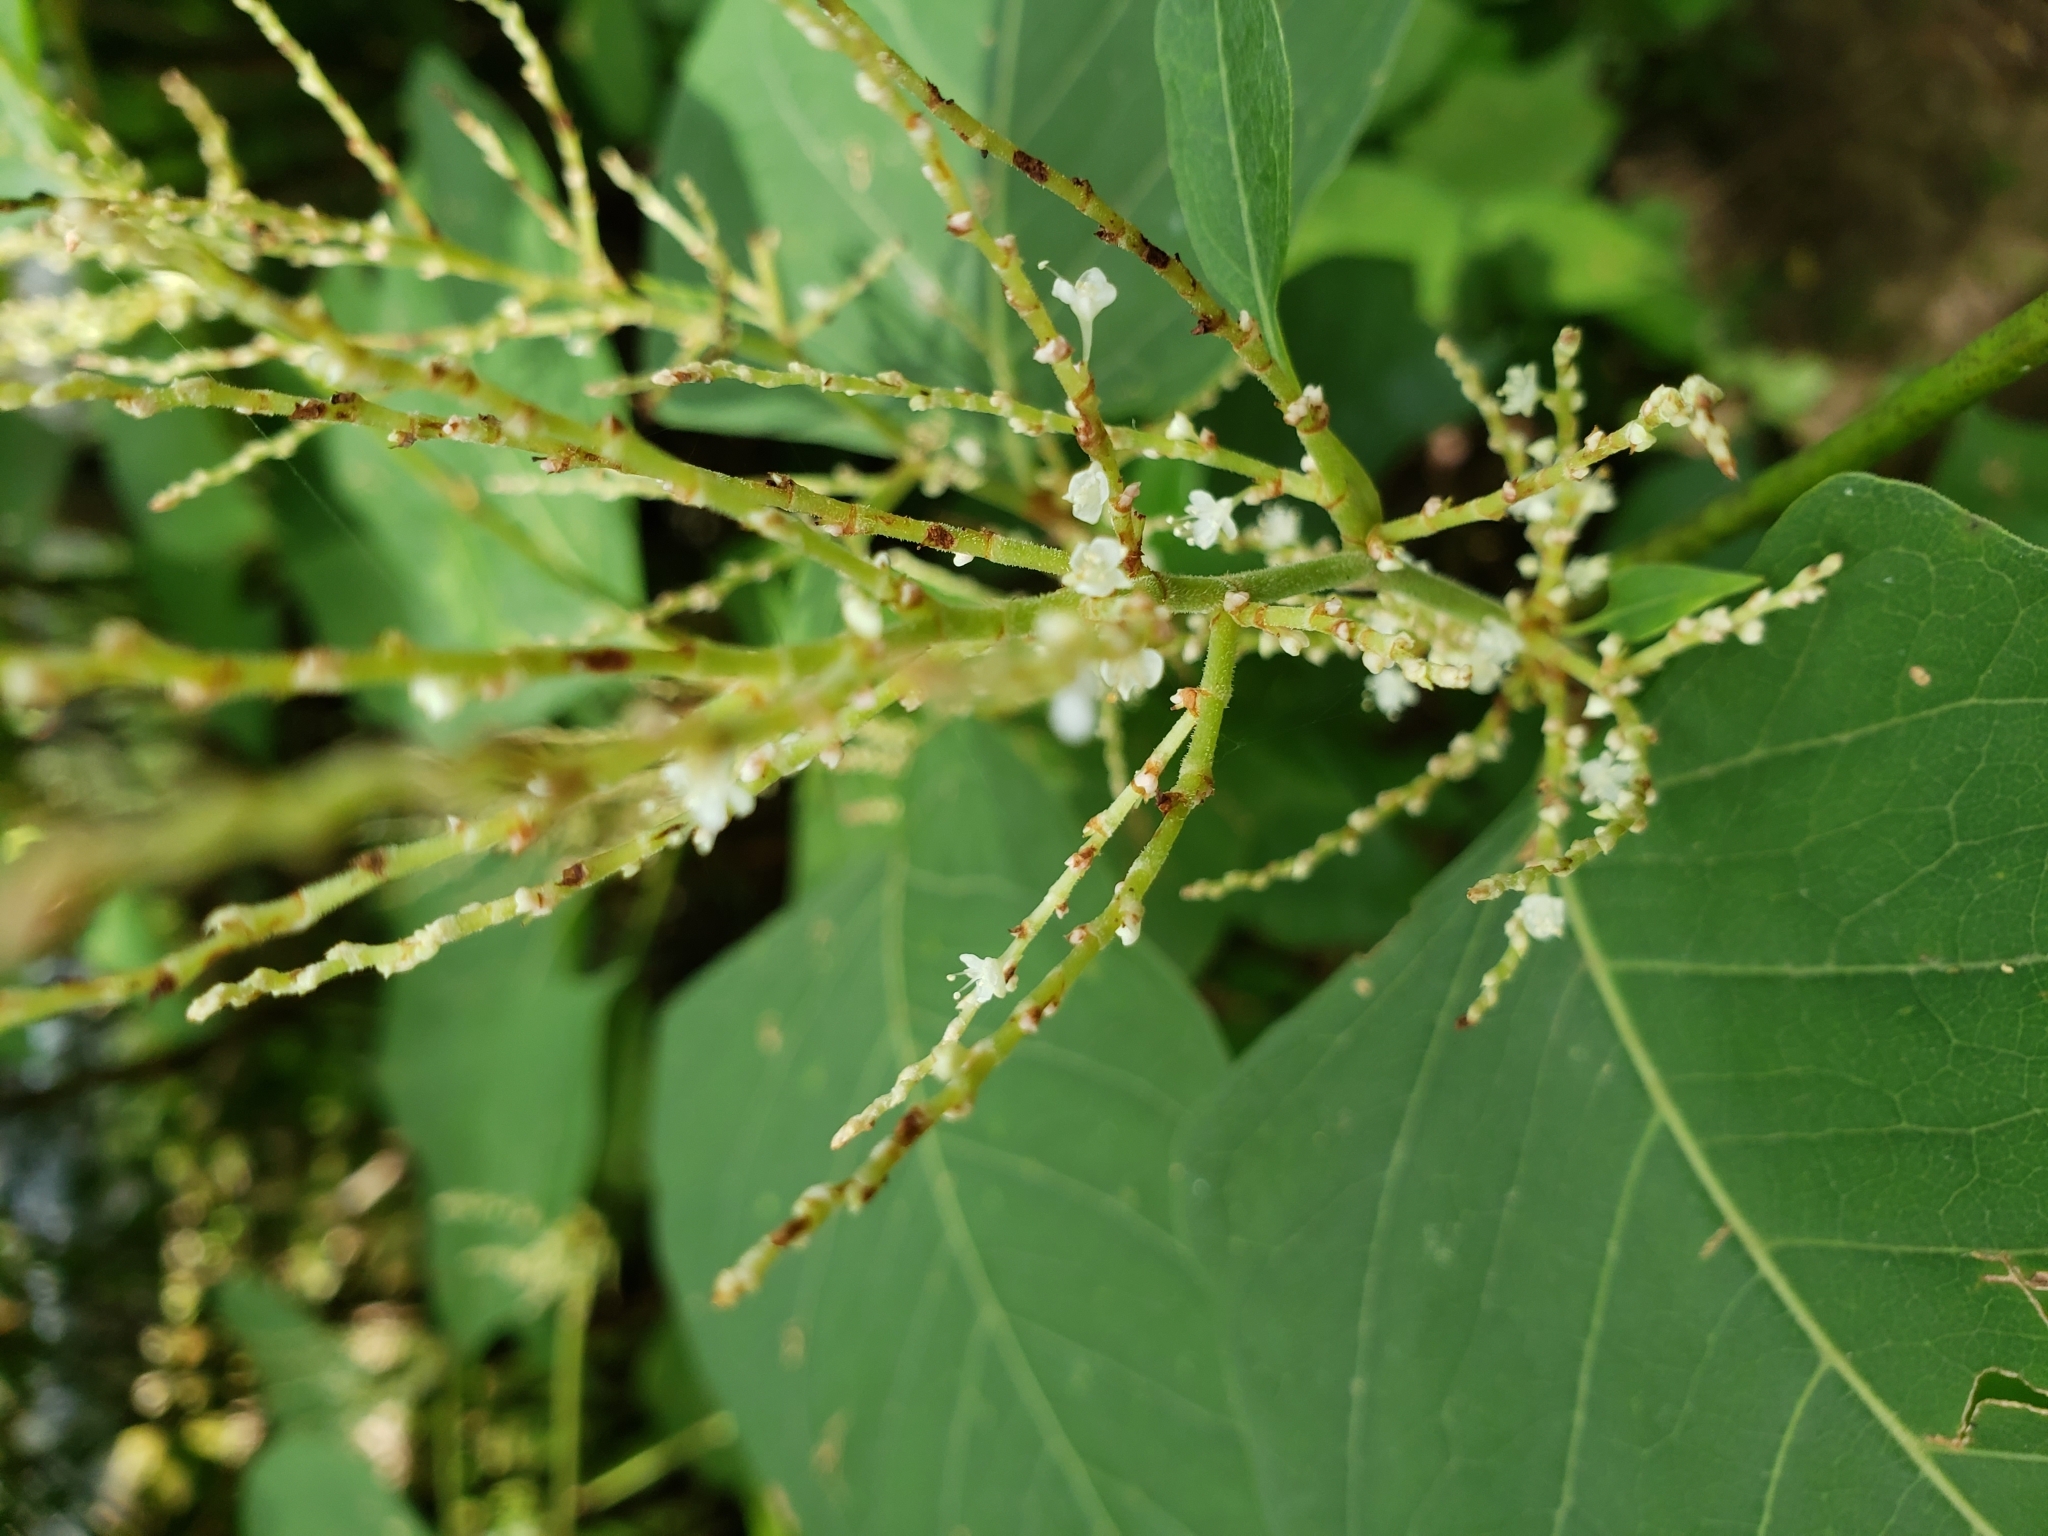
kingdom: Plantae
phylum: Tracheophyta
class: Magnoliopsida
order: Caryophyllales
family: Polygonaceae
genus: Reynoutria
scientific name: Reynoutria japonica
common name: Japanese knotweed
